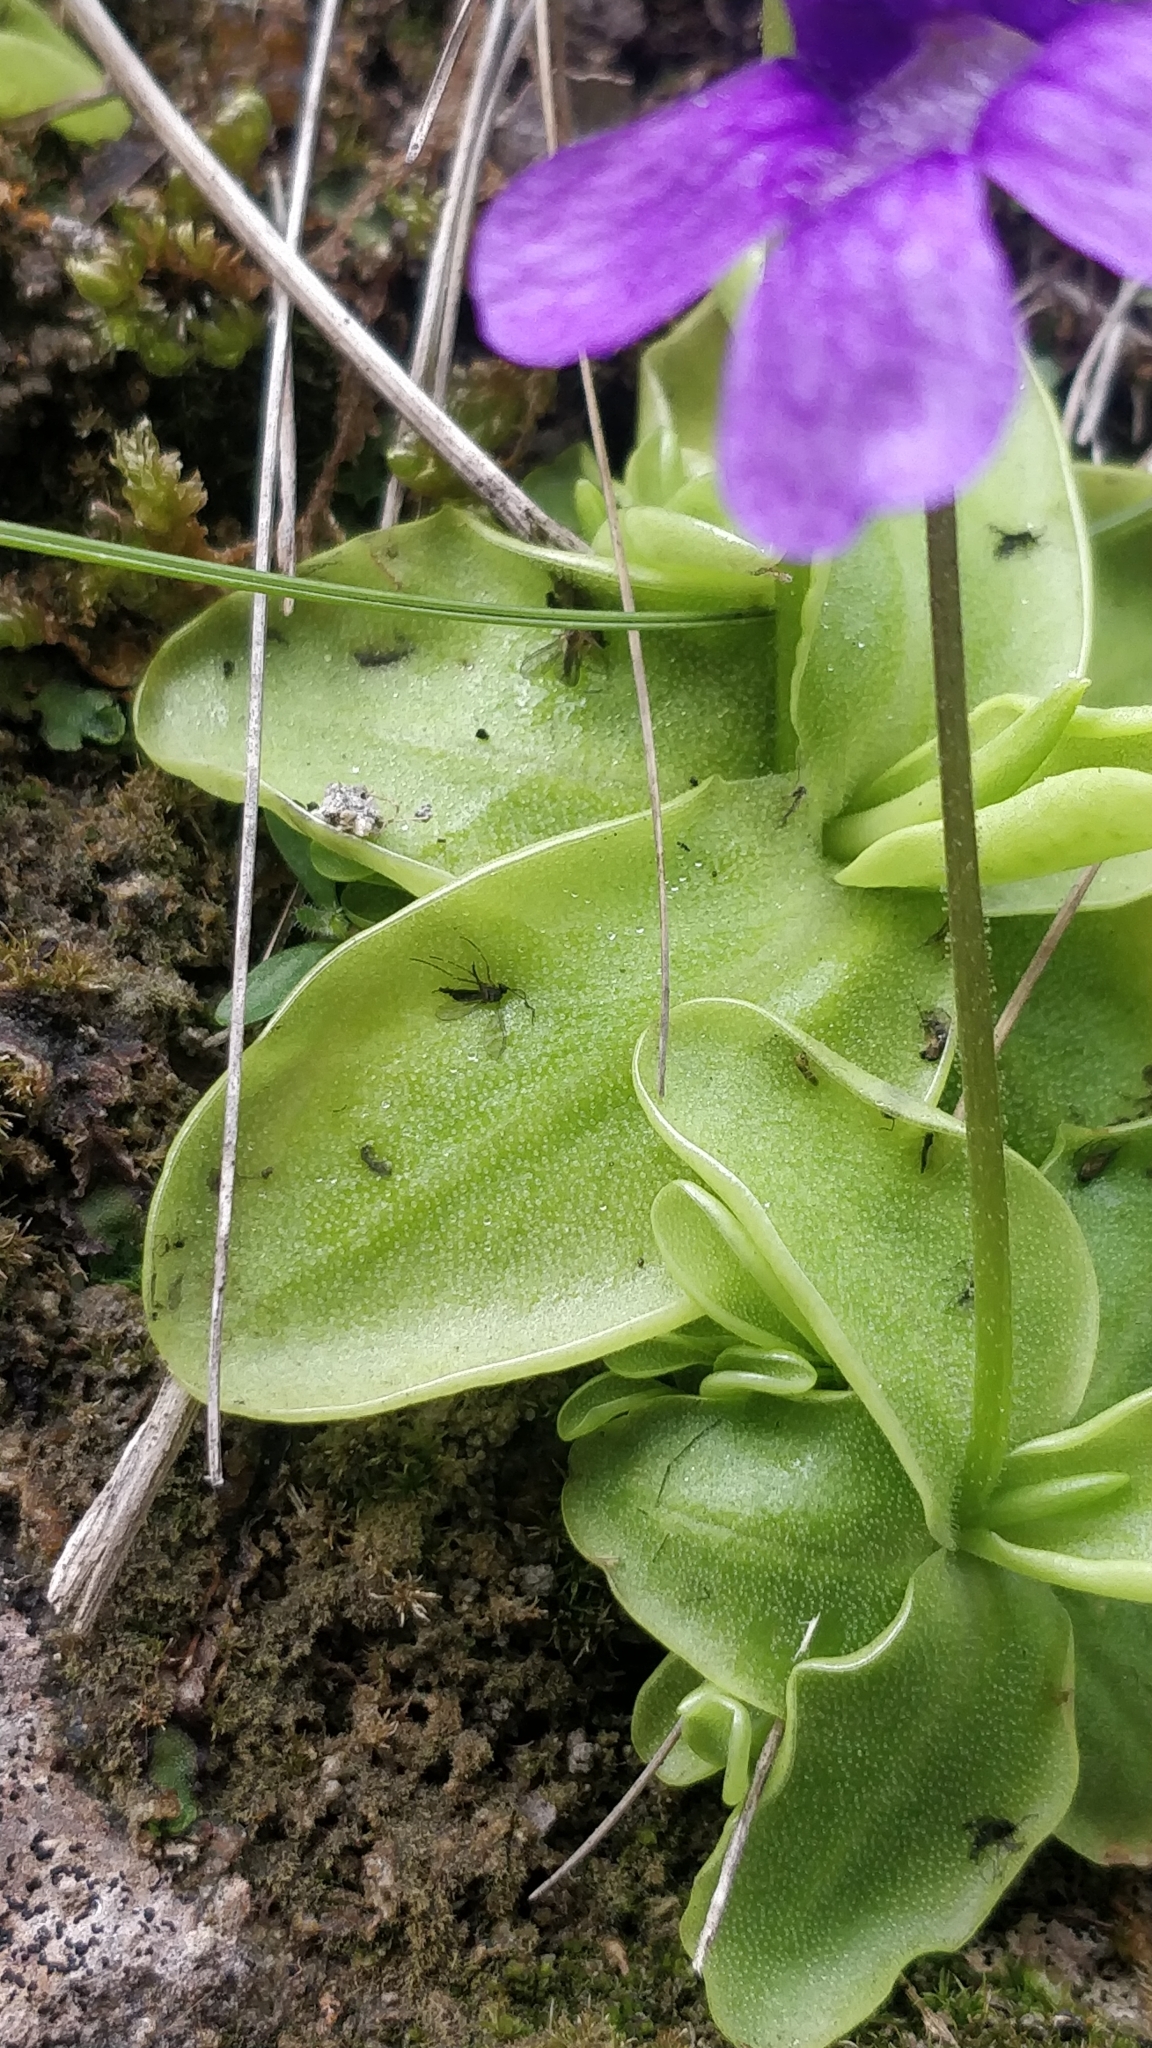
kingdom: Plantae
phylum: Tracheophyta
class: Magnoliopsida
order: Lamiales
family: Lentibulariaceae
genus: Pinguicula
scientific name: Pinguicula grandiflora
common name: Large-flowered butterwort
